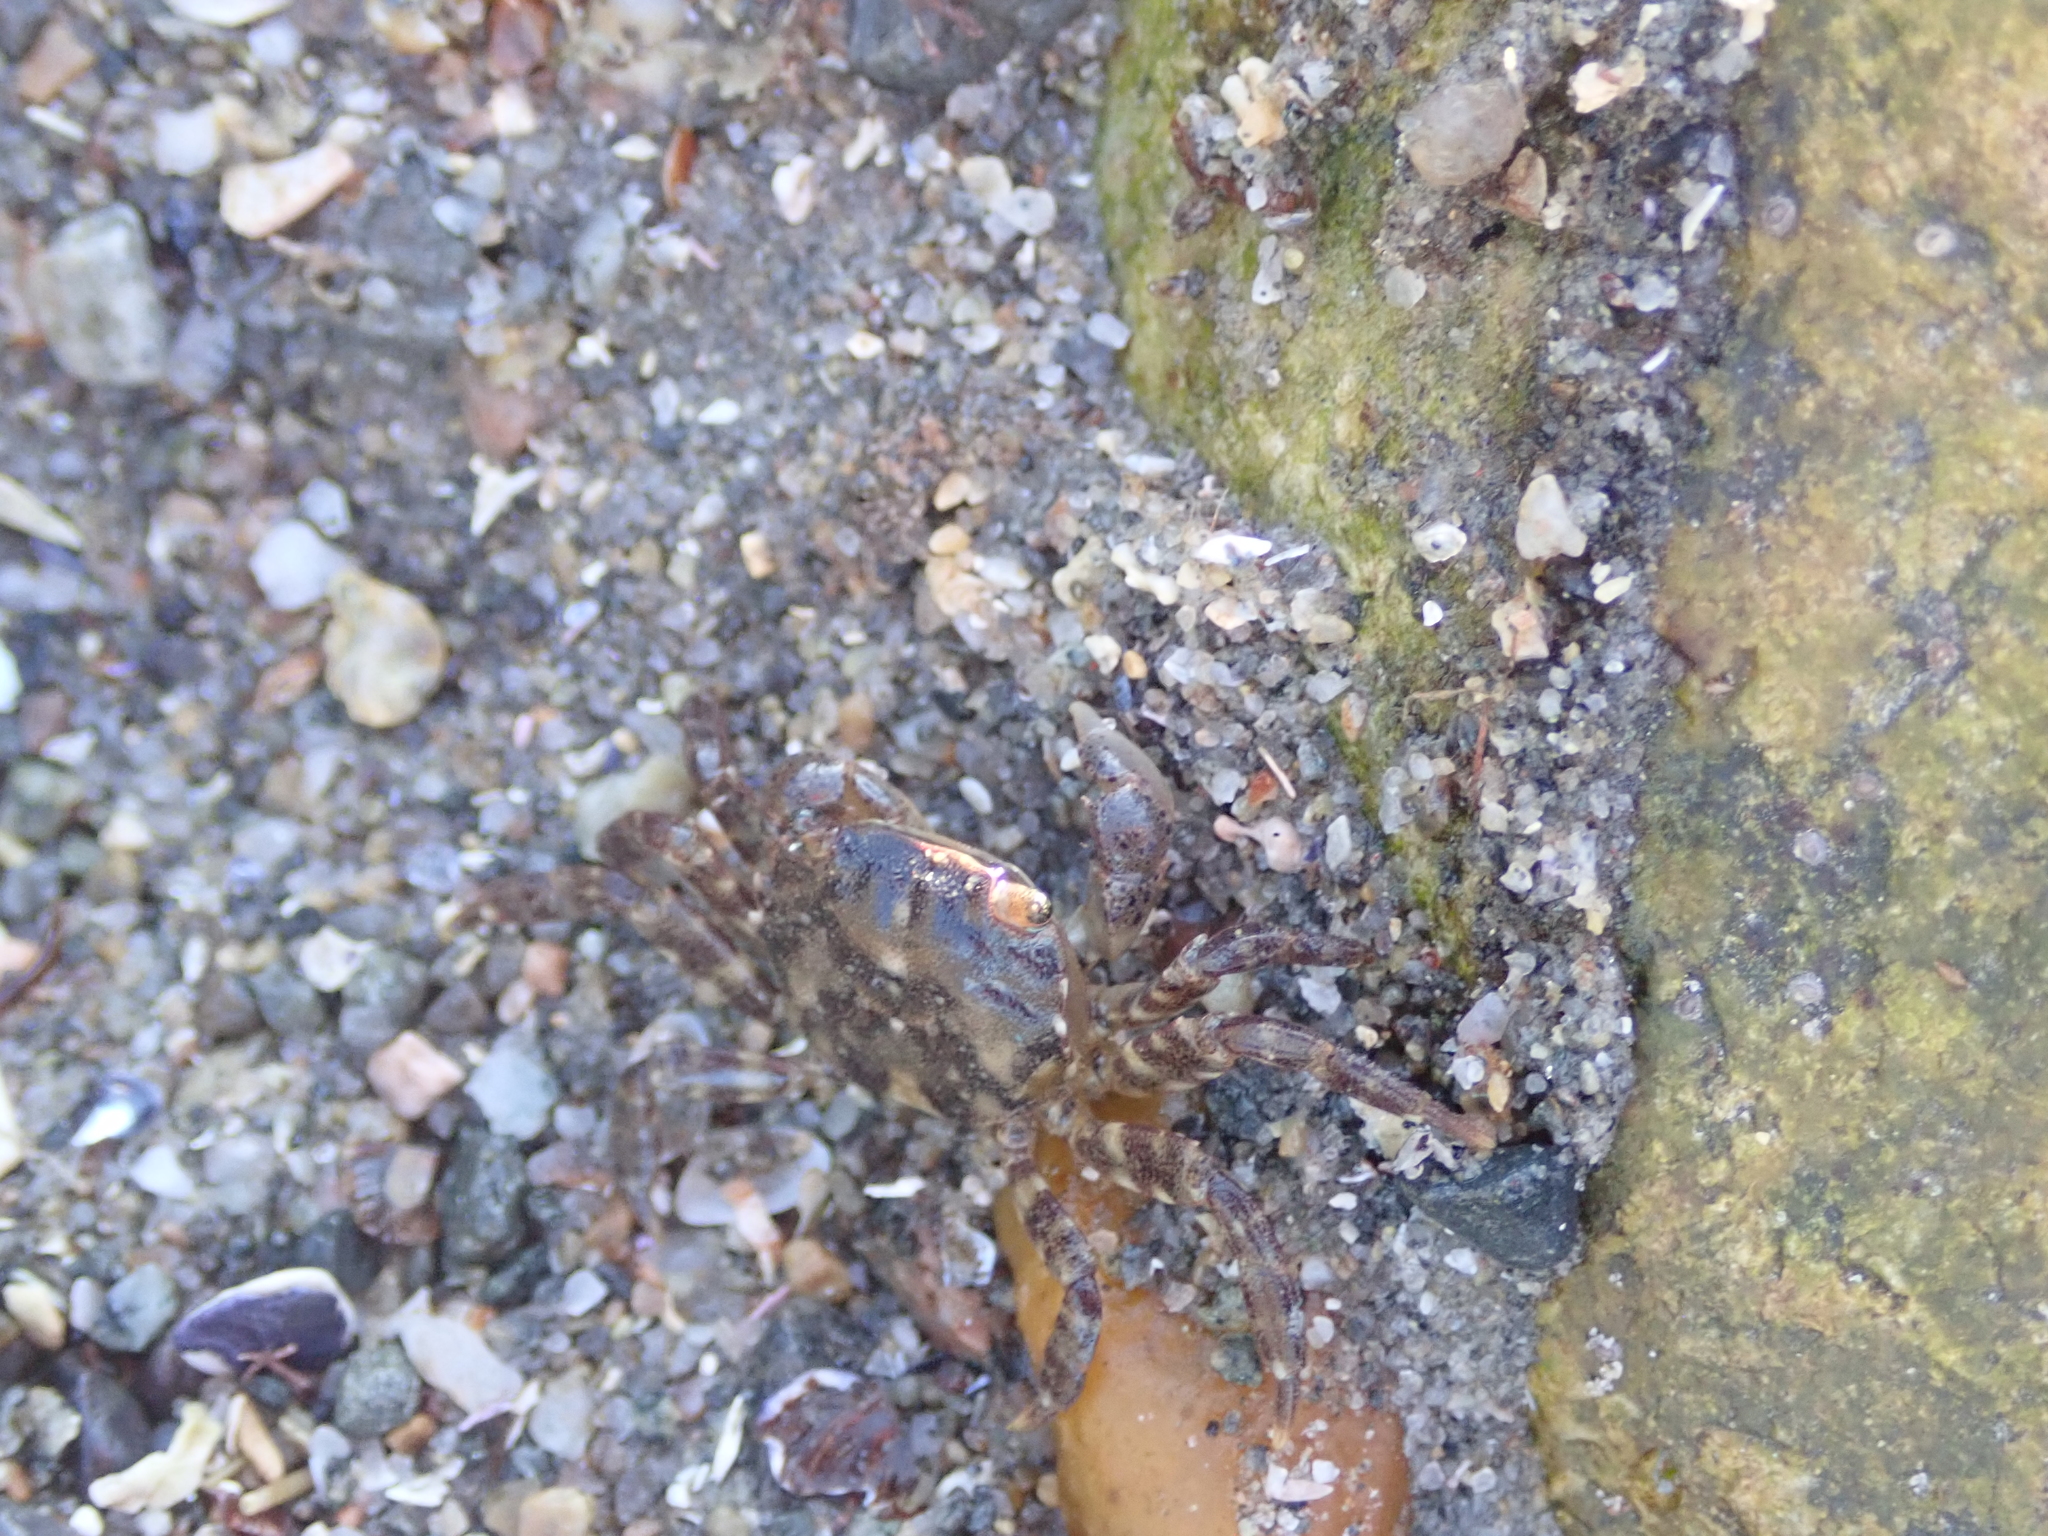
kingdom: Animalia
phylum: Arthropoda
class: Malacostraca
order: Decapoda
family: Varunidae
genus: Hemigrapsus
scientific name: Hemigrapsus sanguineus
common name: Asian shore crab
